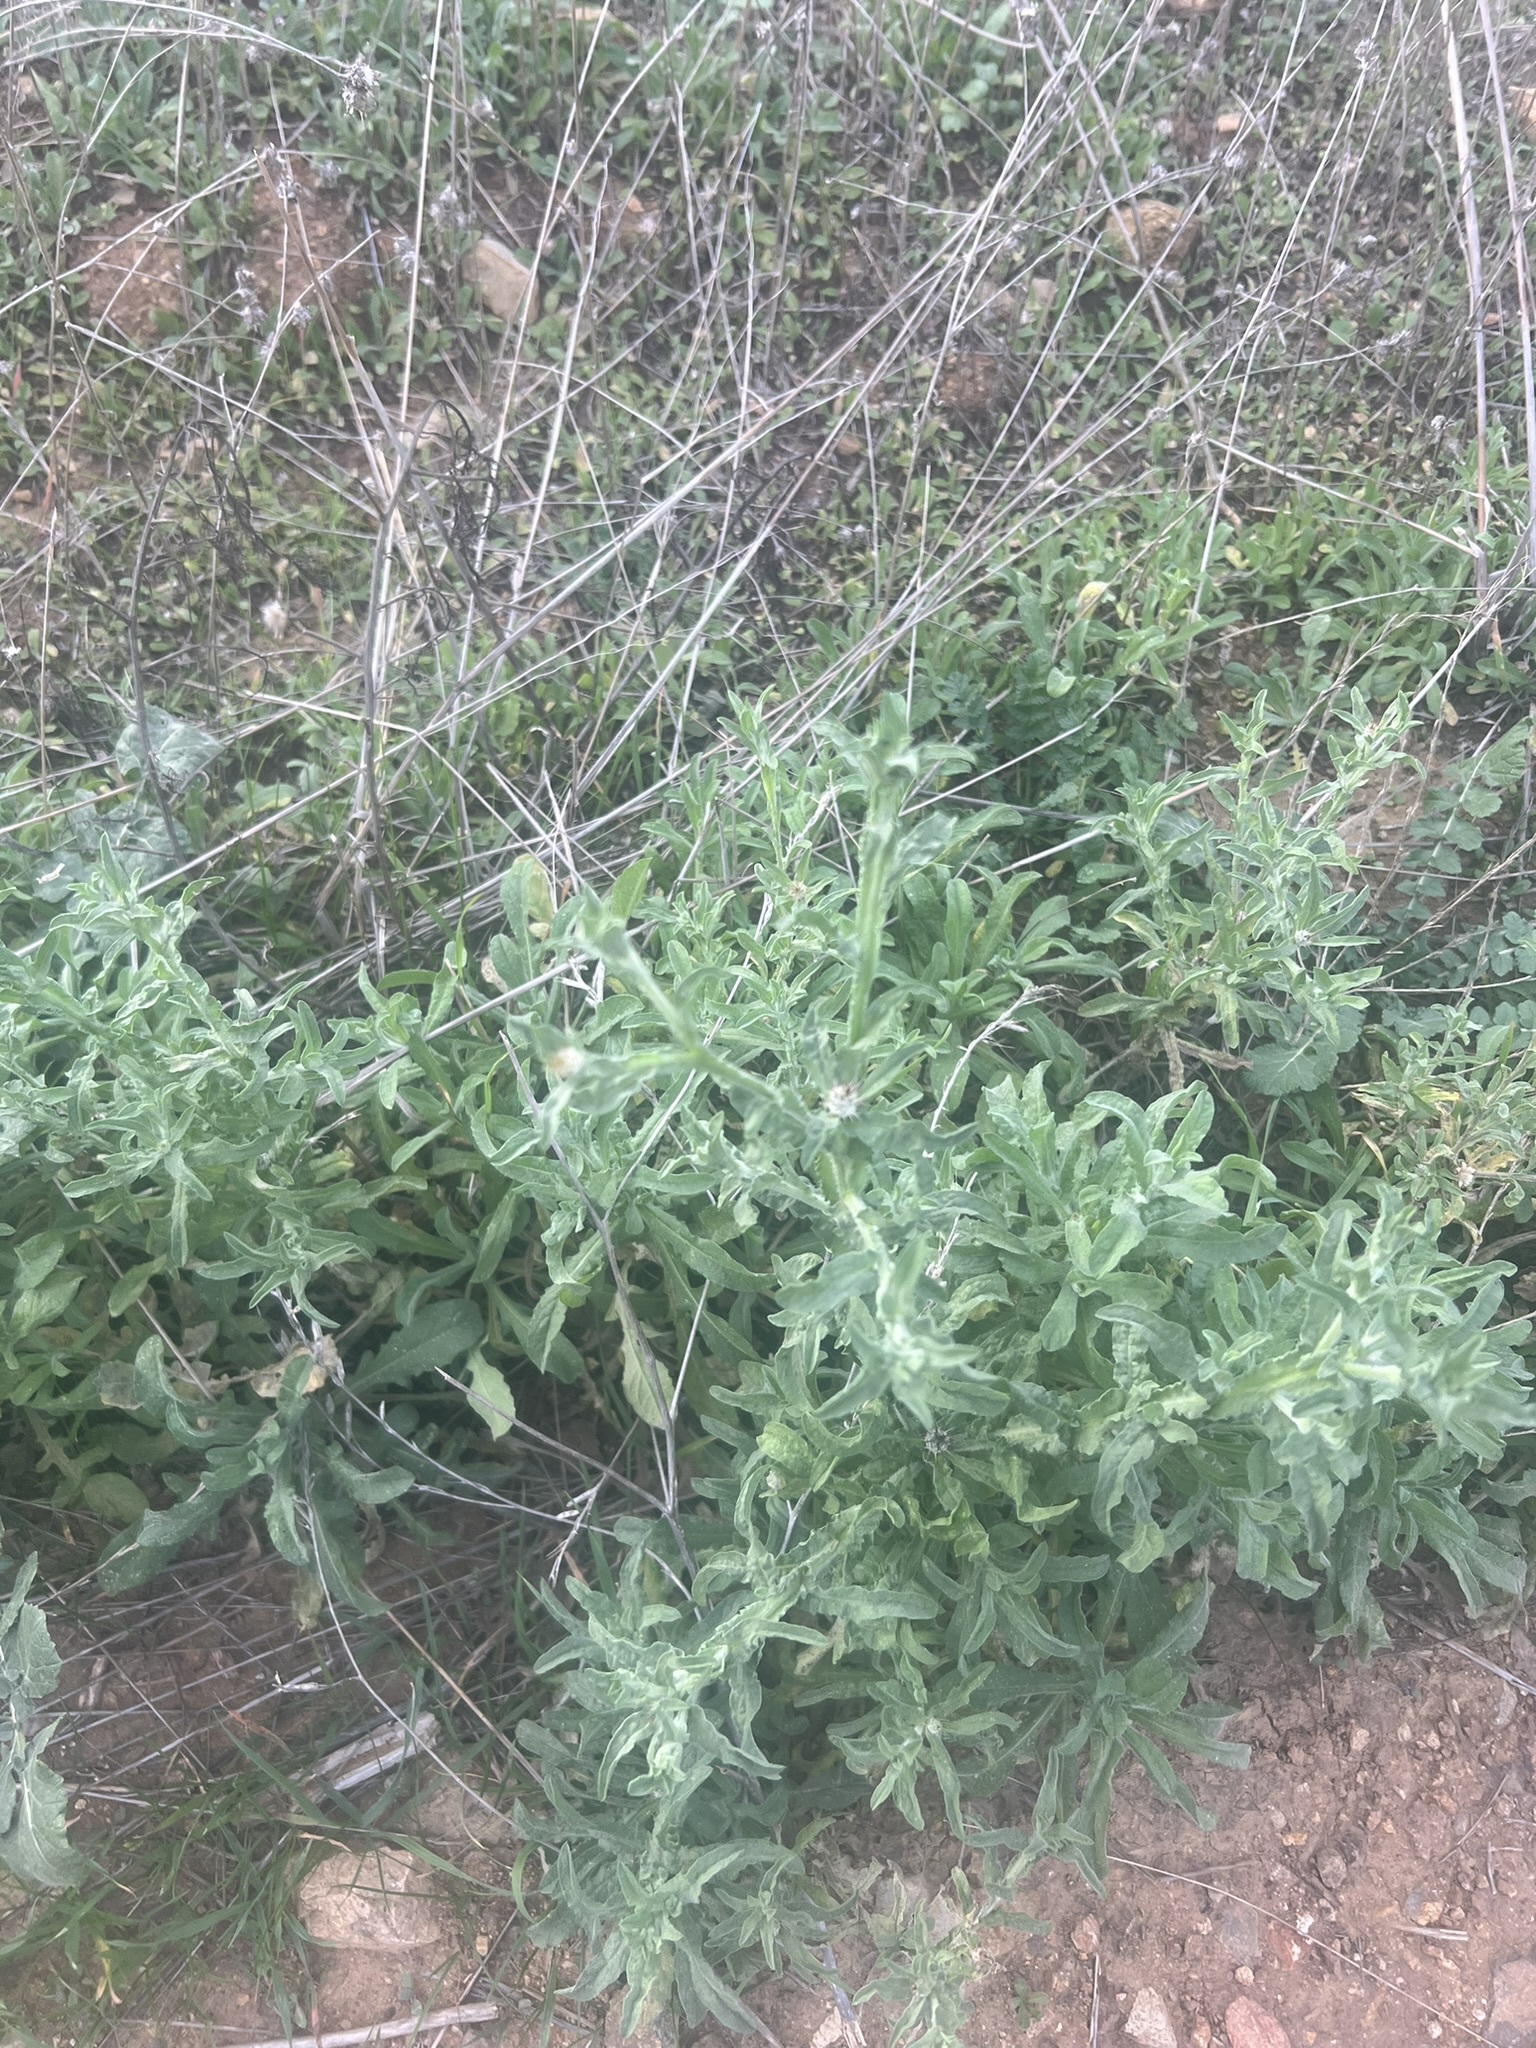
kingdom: Plantae
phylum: Tracheophyta
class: Magnoliopsida
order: Asterales
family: Asteraceae
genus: Centaurea
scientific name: Centaurea melitensis
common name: Maltese star-thistle
